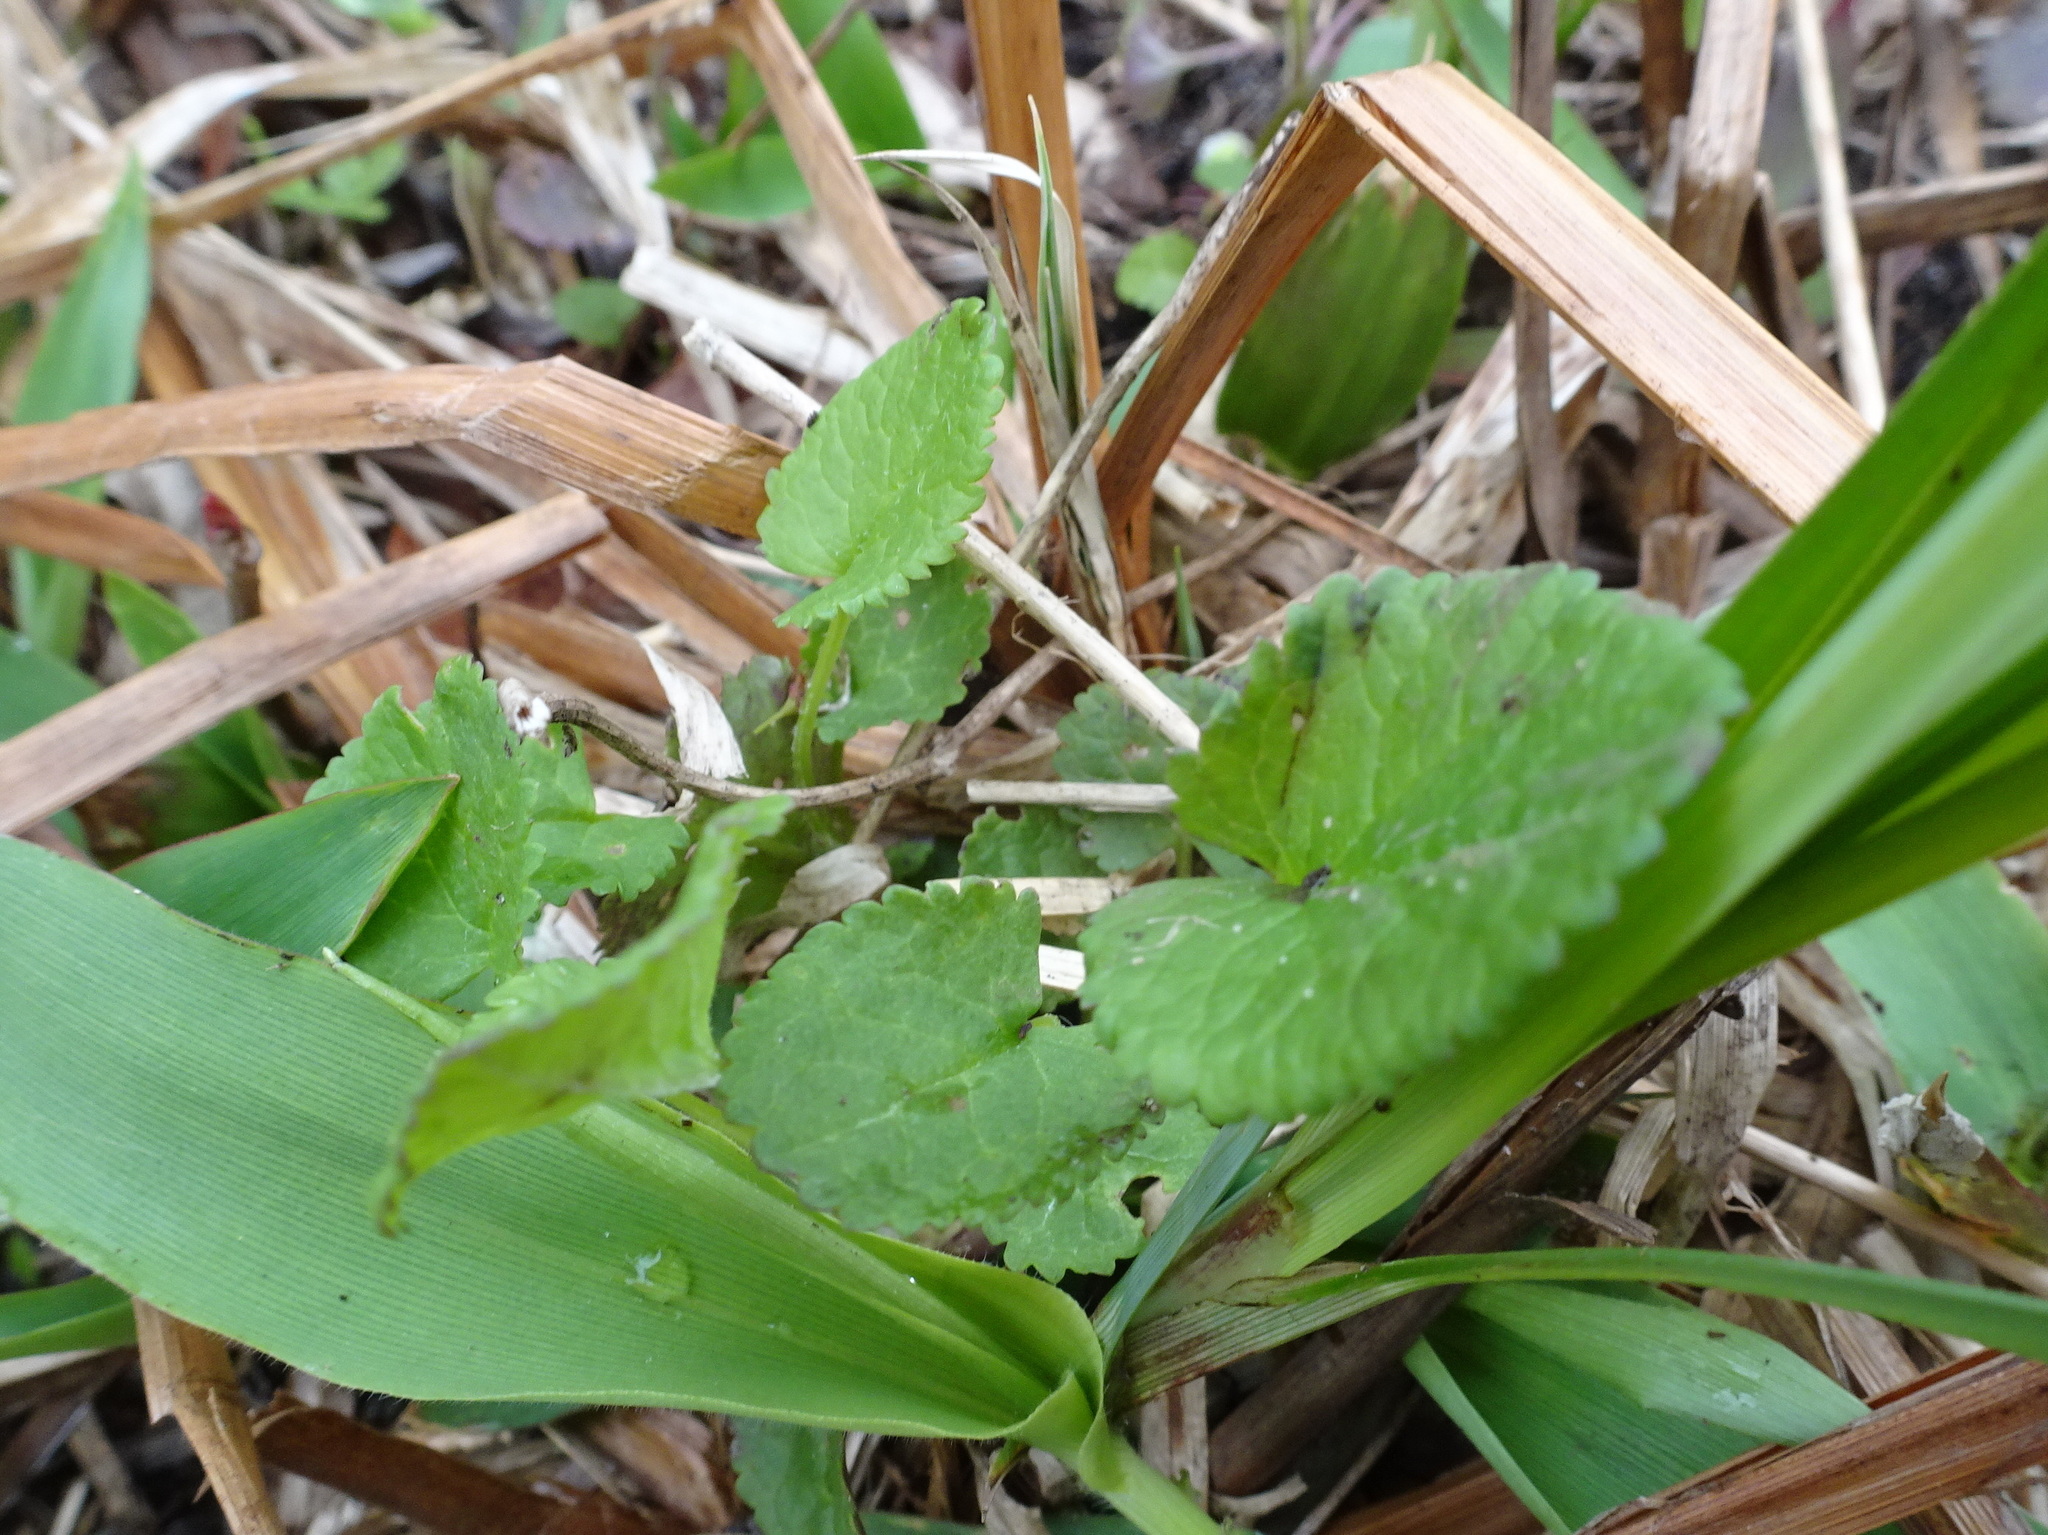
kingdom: Plantae
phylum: Tracheophyta
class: Magnoliopsida
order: Asterales
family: Asteraceae
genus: Packera
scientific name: Packera aurea
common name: Golden groundsel
